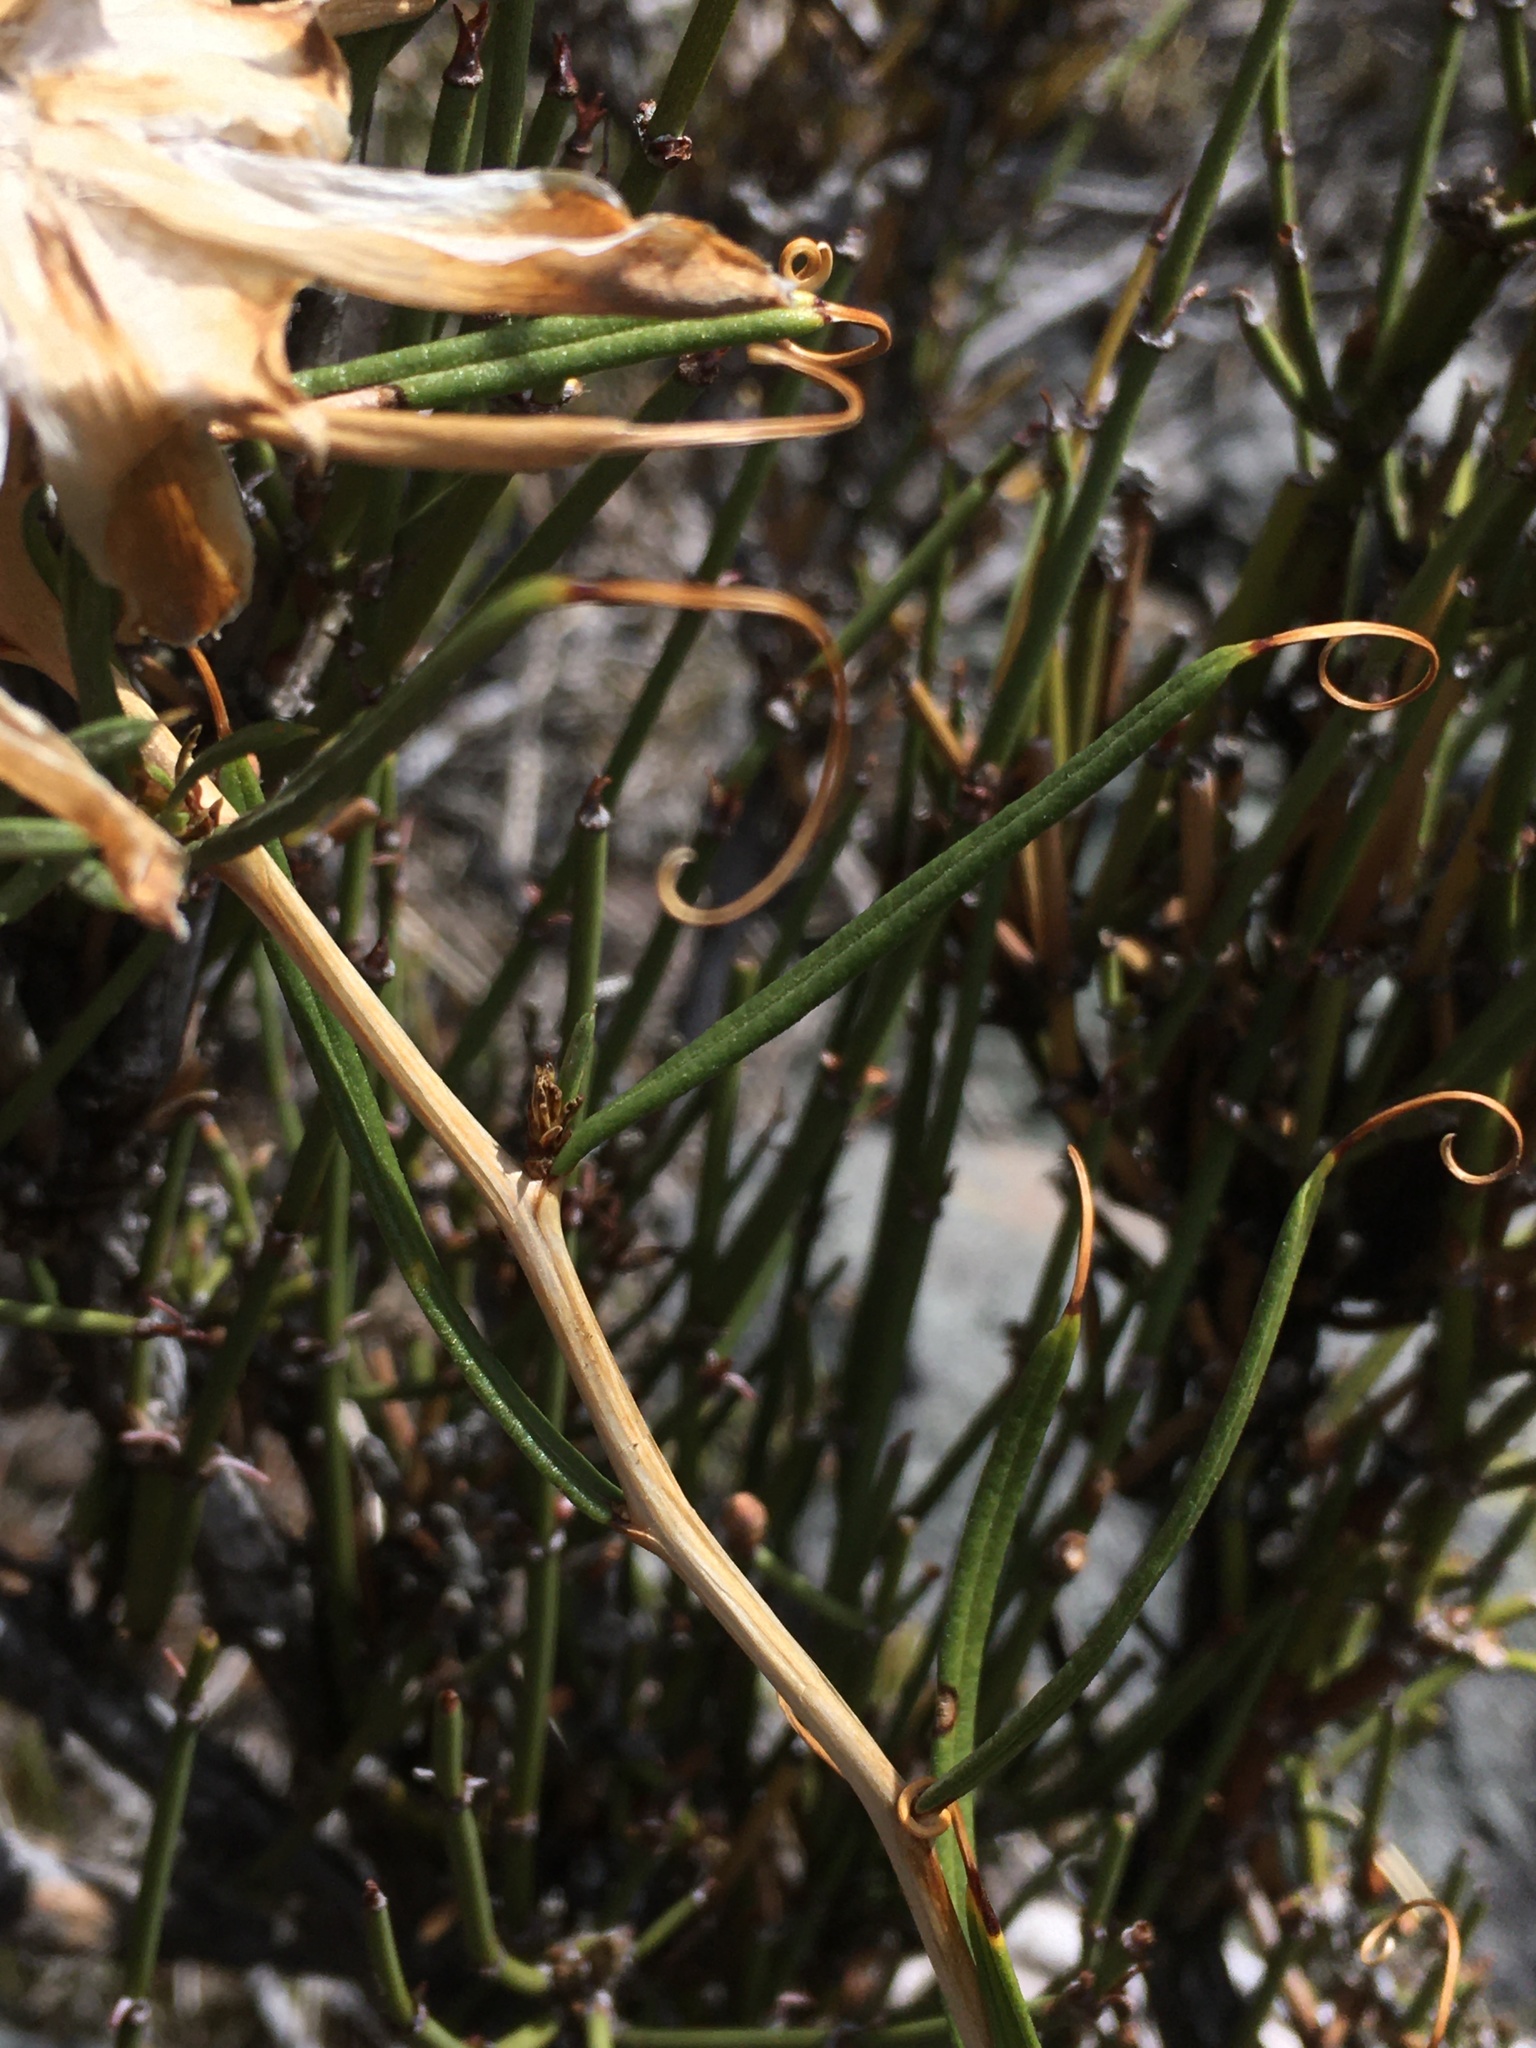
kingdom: Plantae
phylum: Tracheophyta
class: Magnoliopsida
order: Asterales
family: Asteraceae
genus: Mutisia
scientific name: Mutisia subulata
